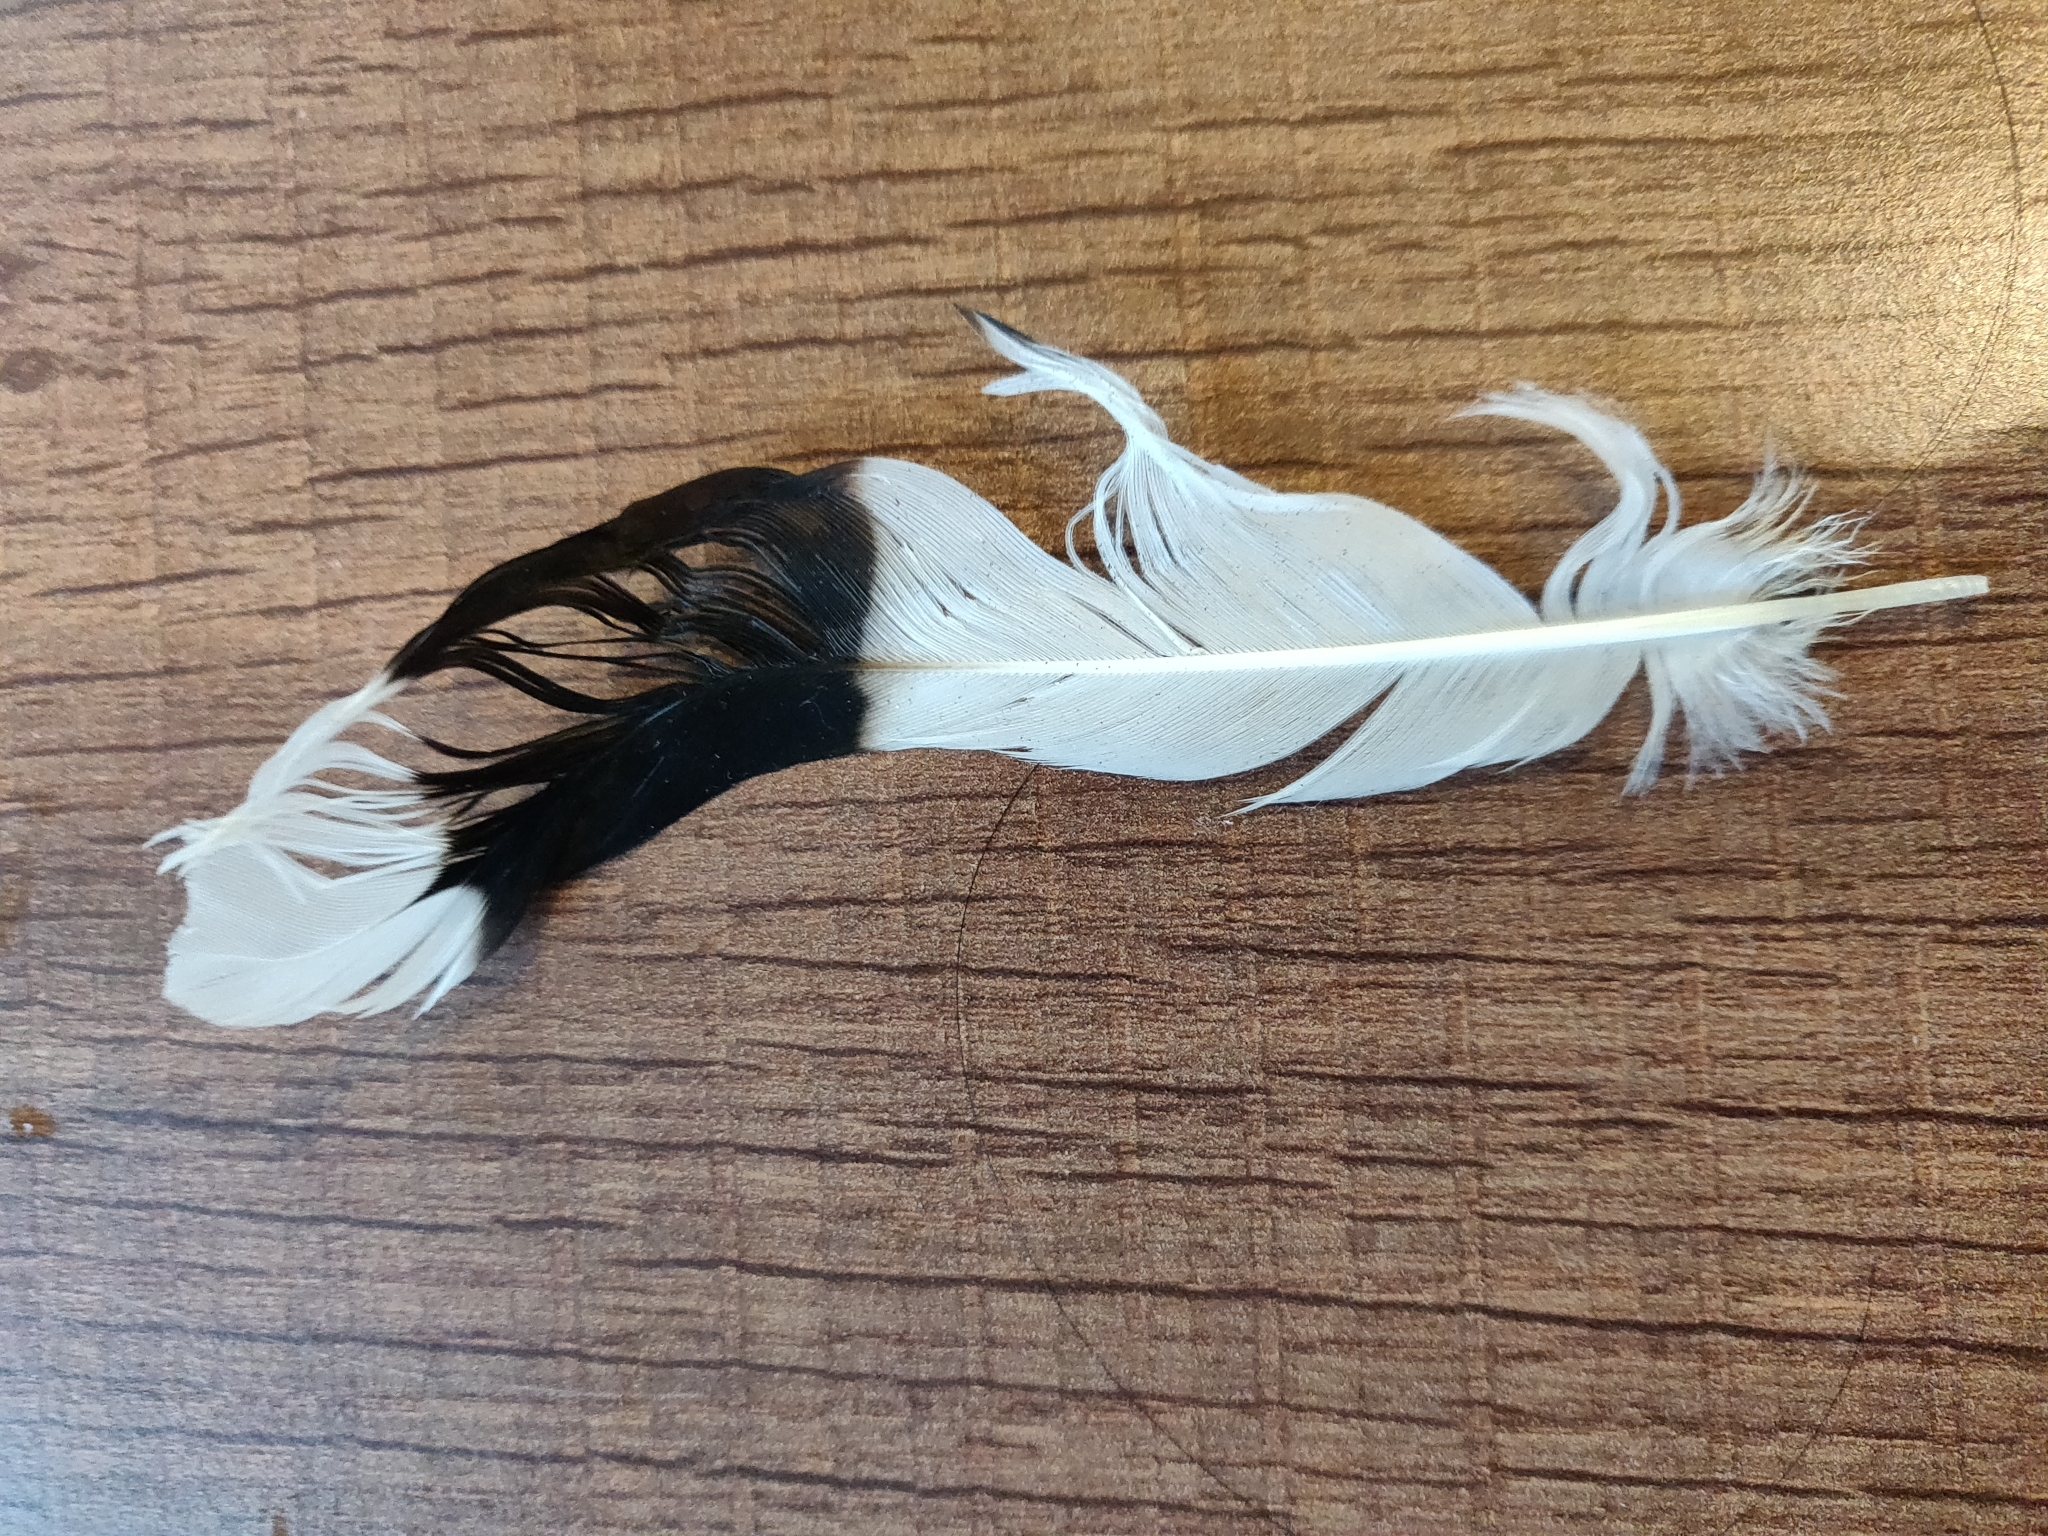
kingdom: Animalia
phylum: Chordata
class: Aves
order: Charadriiformes
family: Charadriidae
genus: Vanellus
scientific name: Vanellus indicus
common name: Red-wattled lapwing
